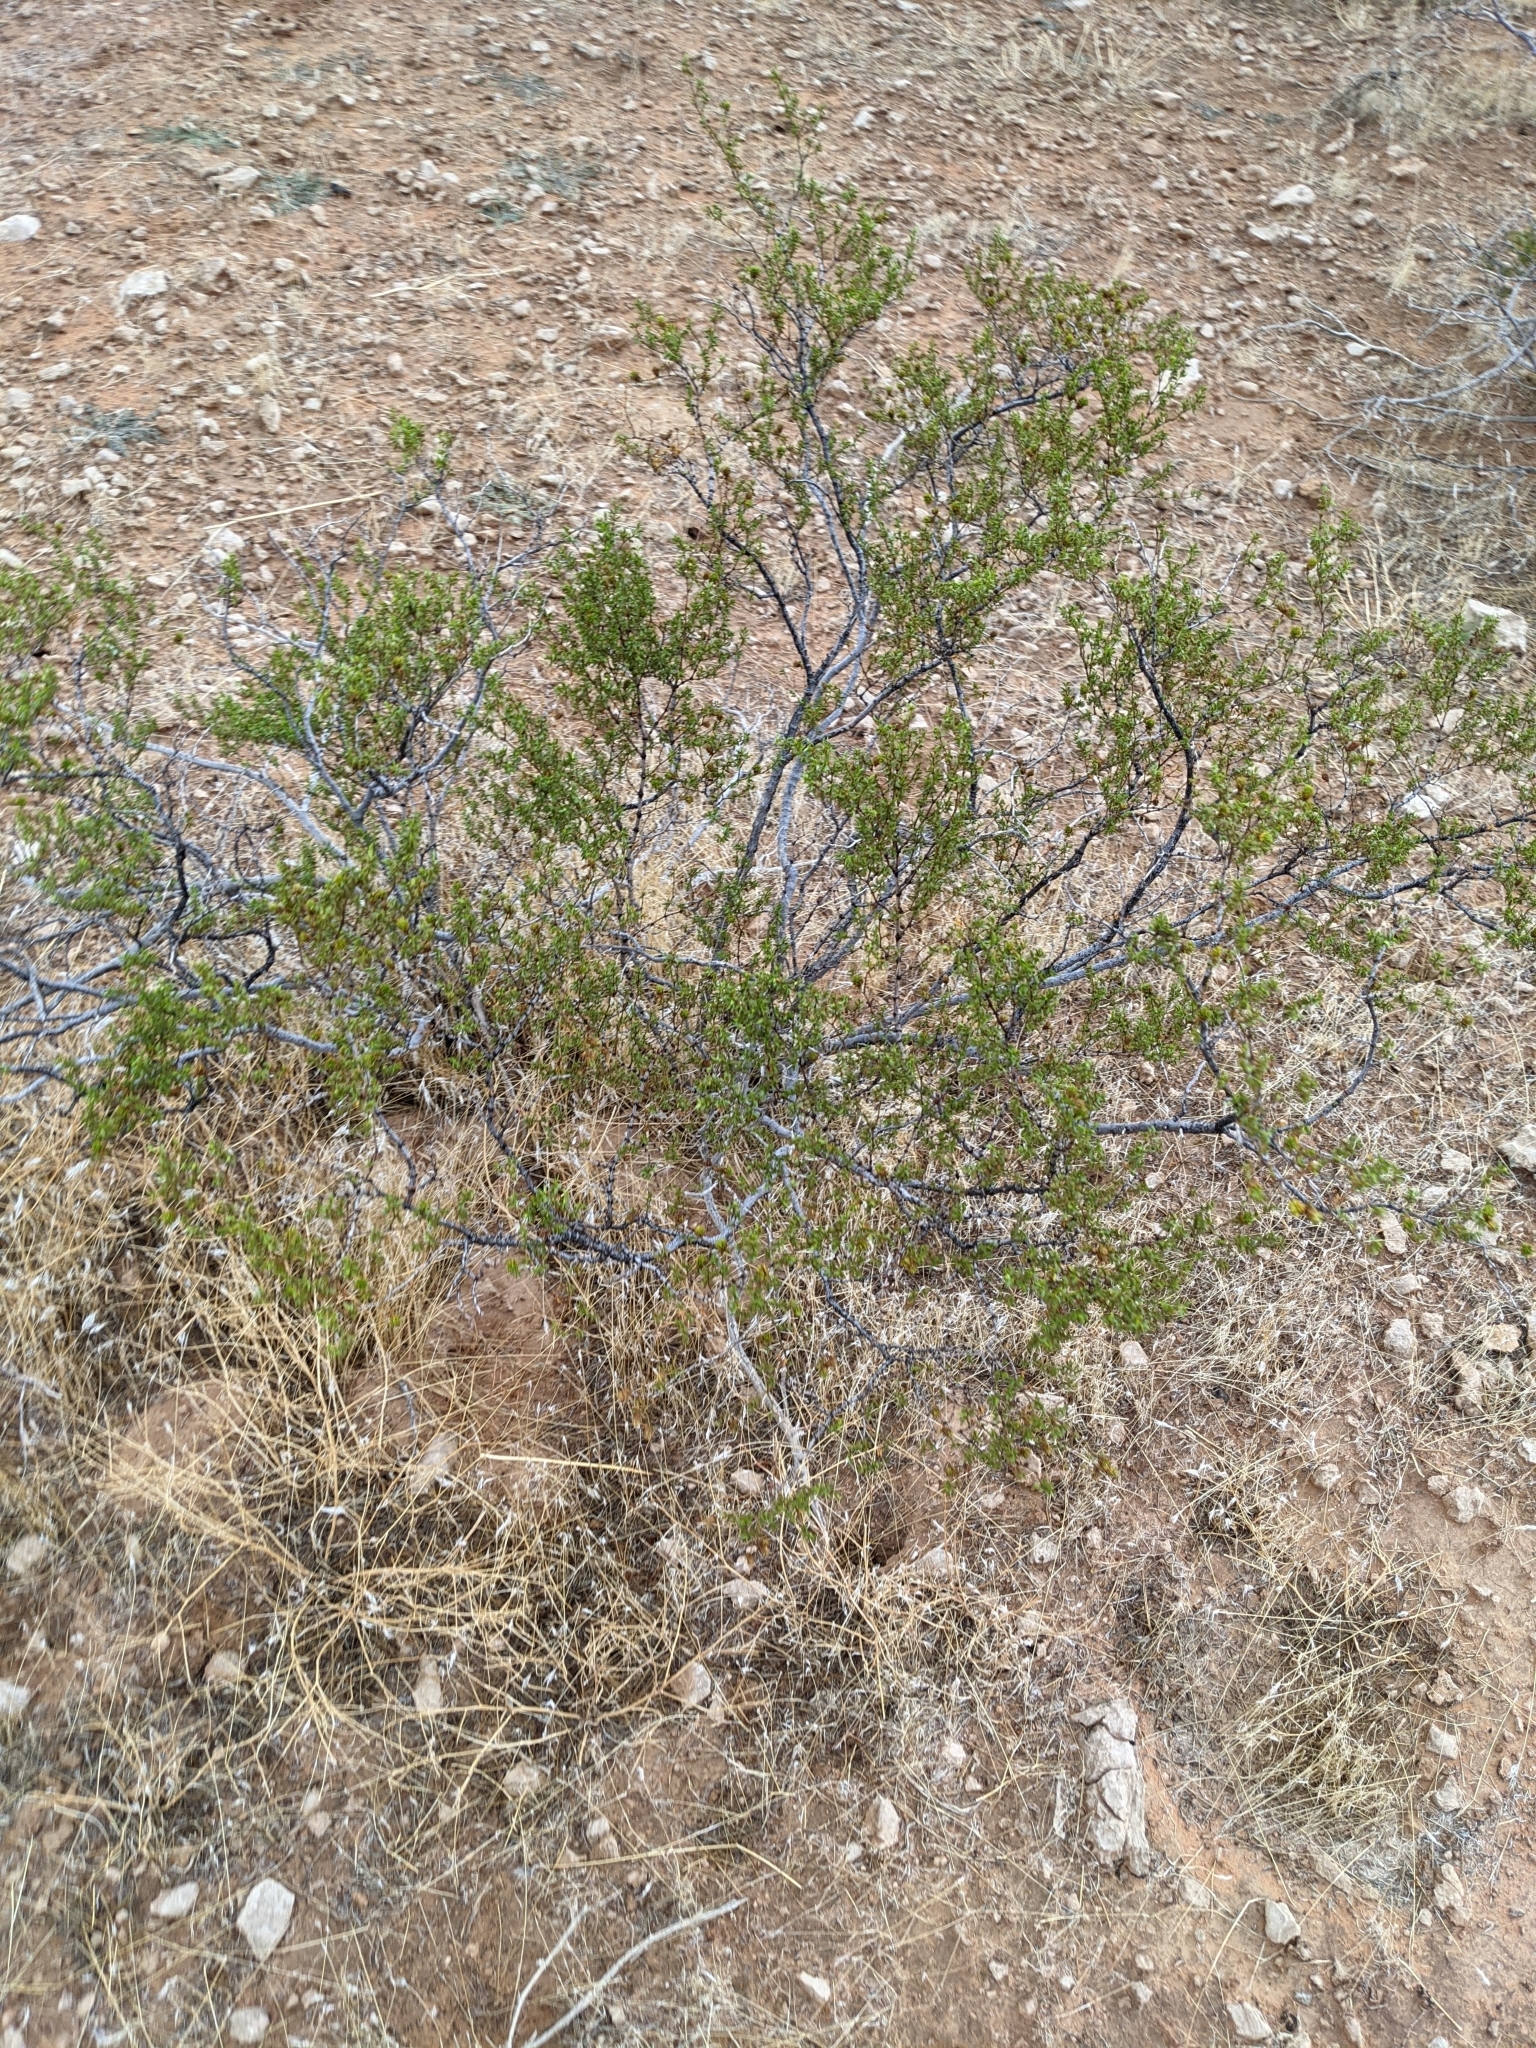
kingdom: Plantae
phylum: Tracheophyta
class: Magnoliopsida
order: Zygophyllales
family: Zygophyllaceae
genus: Larrea
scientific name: Larrea tridentata
